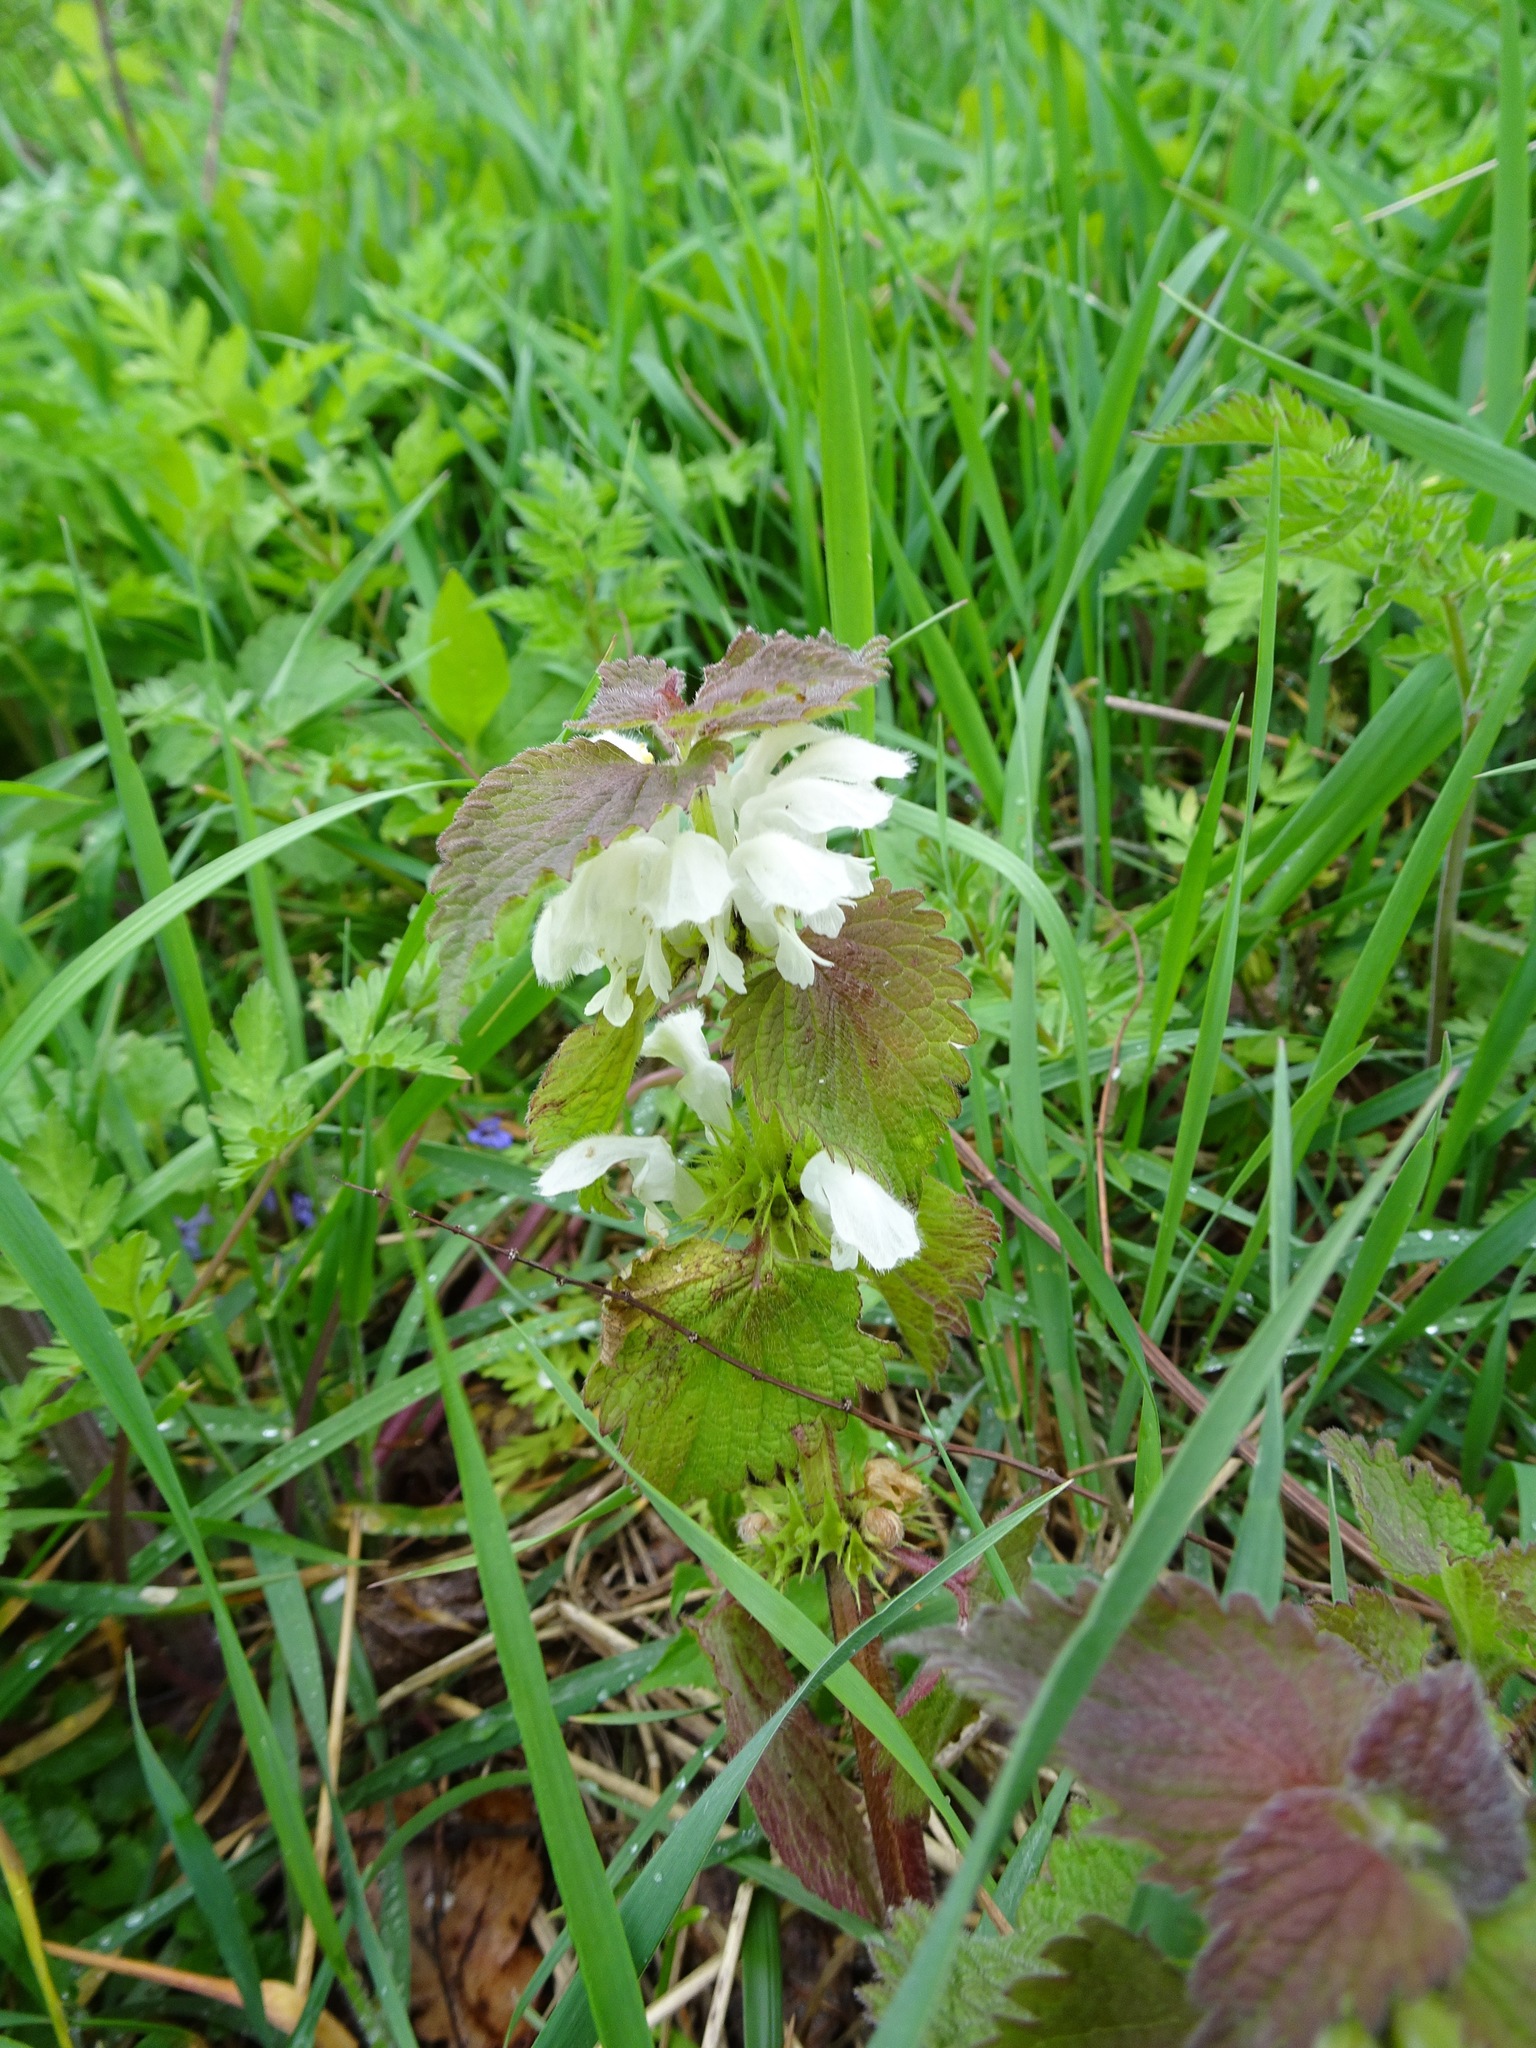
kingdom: Plantae
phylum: Tracheophyta
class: Magnoliopsida
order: Lamiales
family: Lamiaceae
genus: Lamium
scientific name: Lamium album
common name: White dead-nettle
